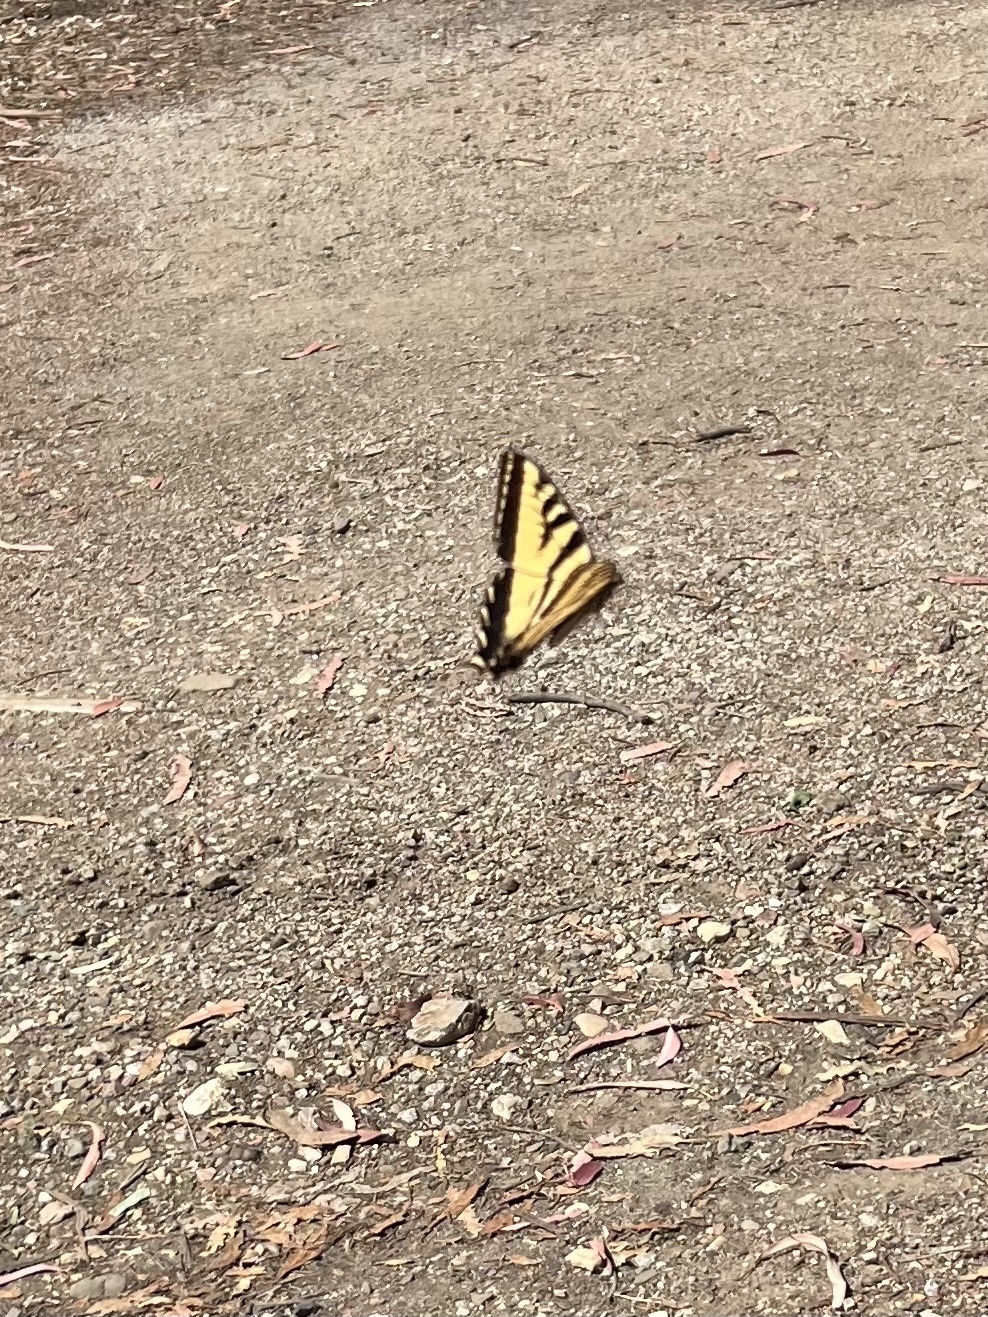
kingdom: Animalia
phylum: Arthropoda
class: Insecta
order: Lepidoptera
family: Papilionidae
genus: Papilio
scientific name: Papilio rutulus
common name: Western tiger swallowtail
